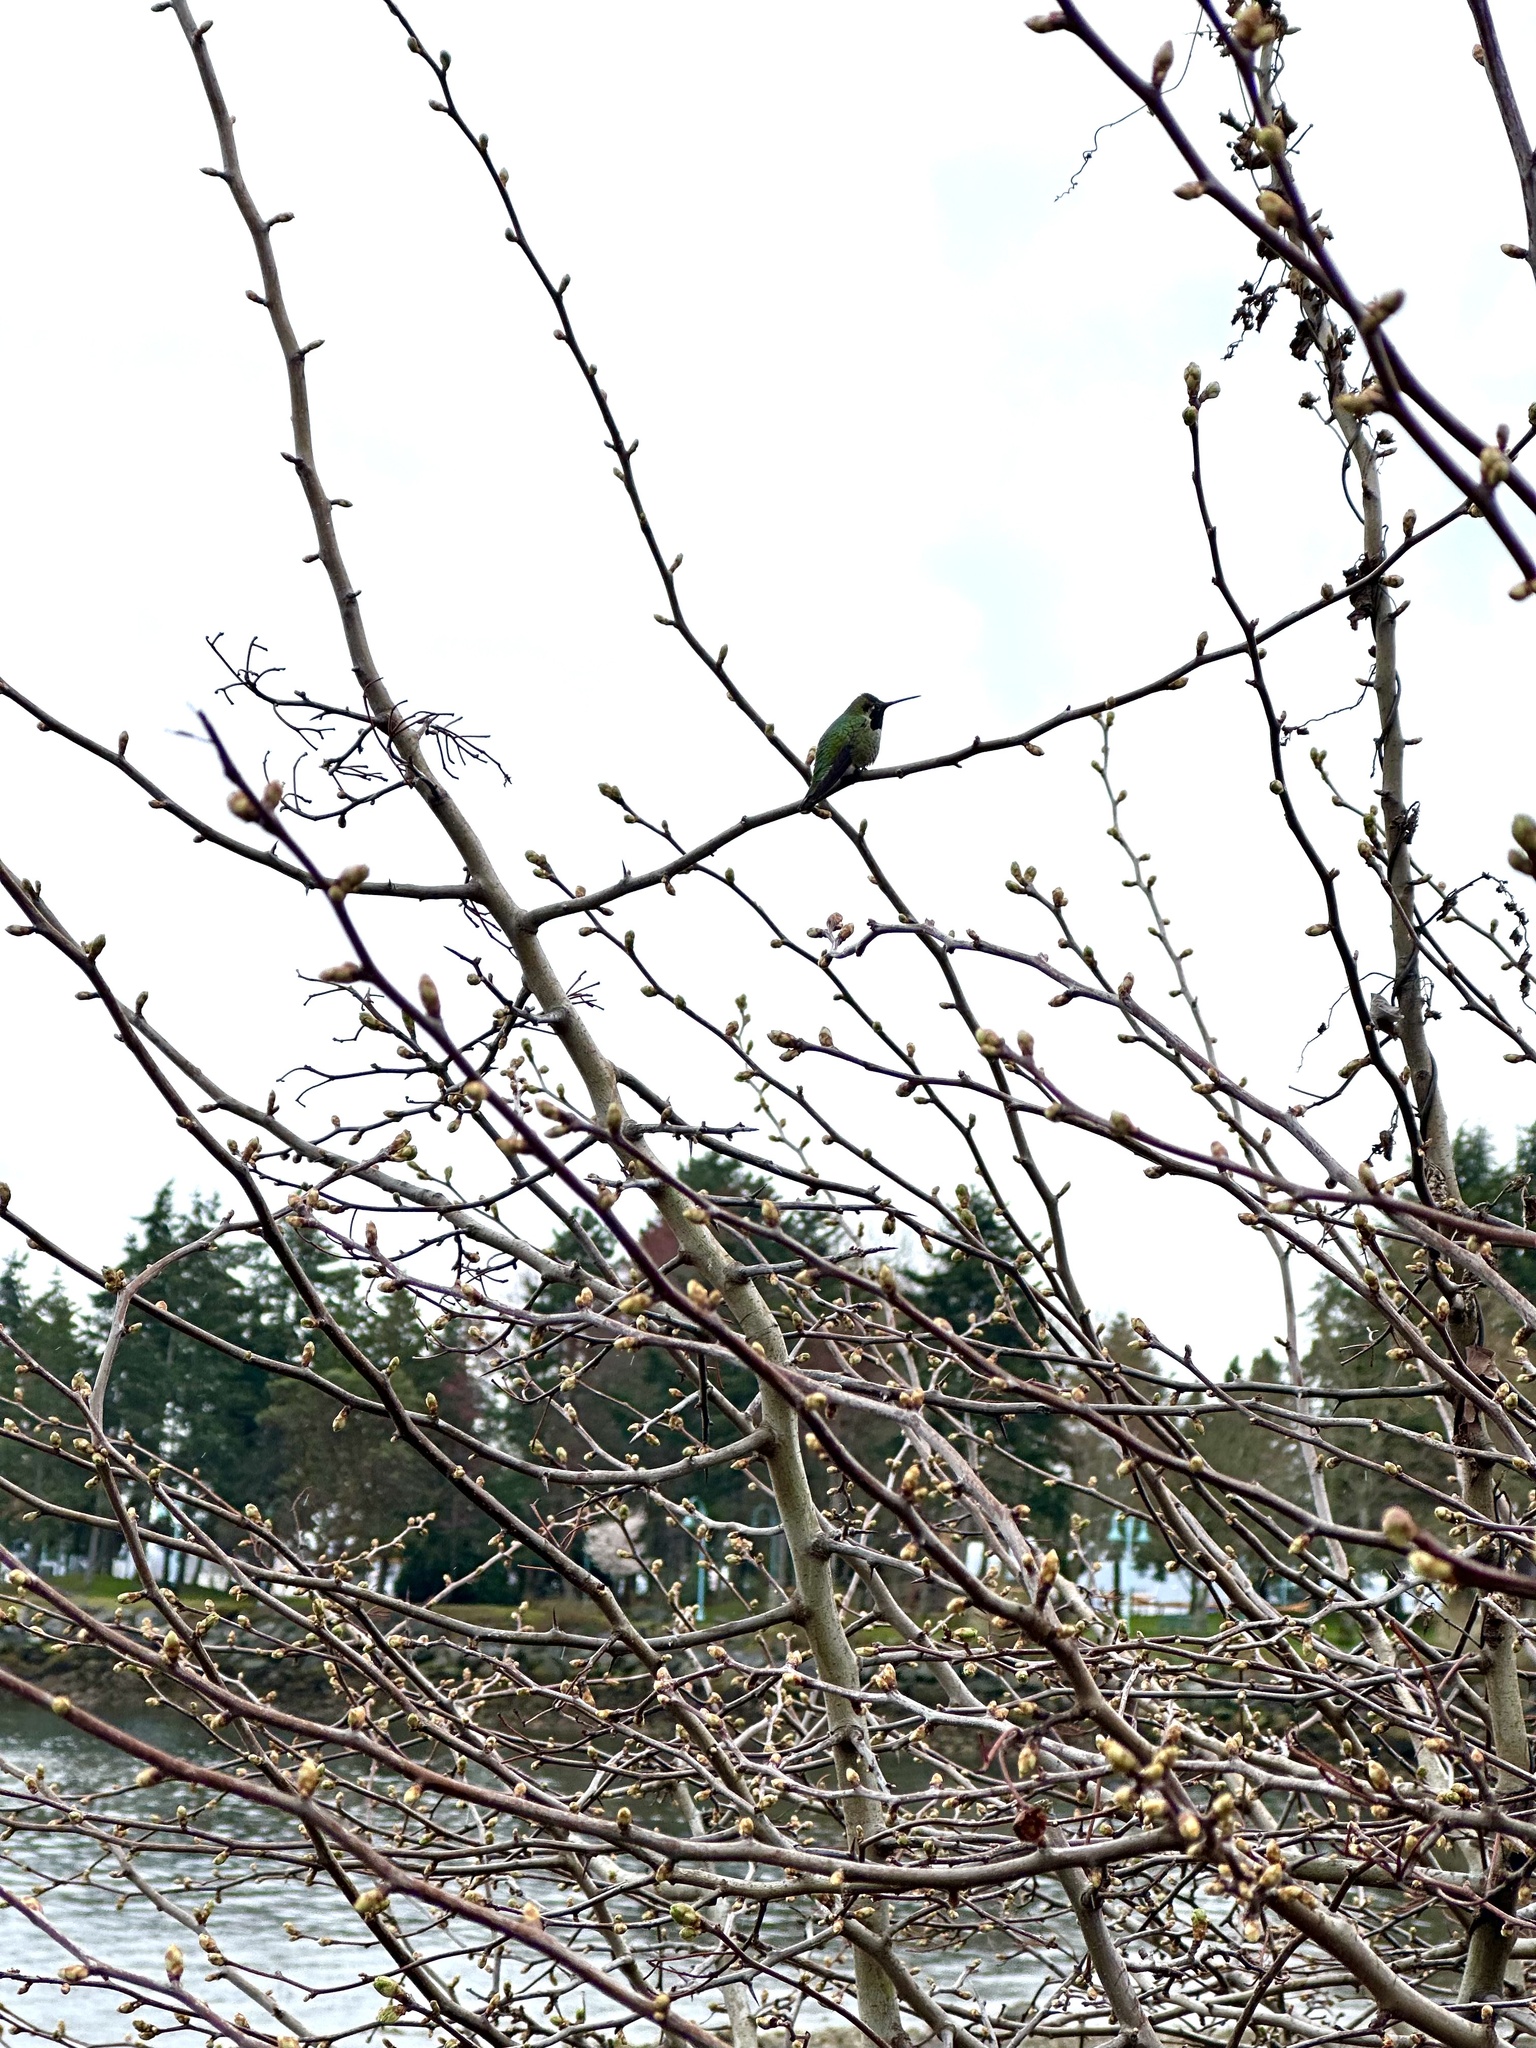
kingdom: Animalia
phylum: Chordata
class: Aves
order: Apodiformes
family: Trochilidae
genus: Calypte
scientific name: Calypte anna
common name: Anna's hummingbird
